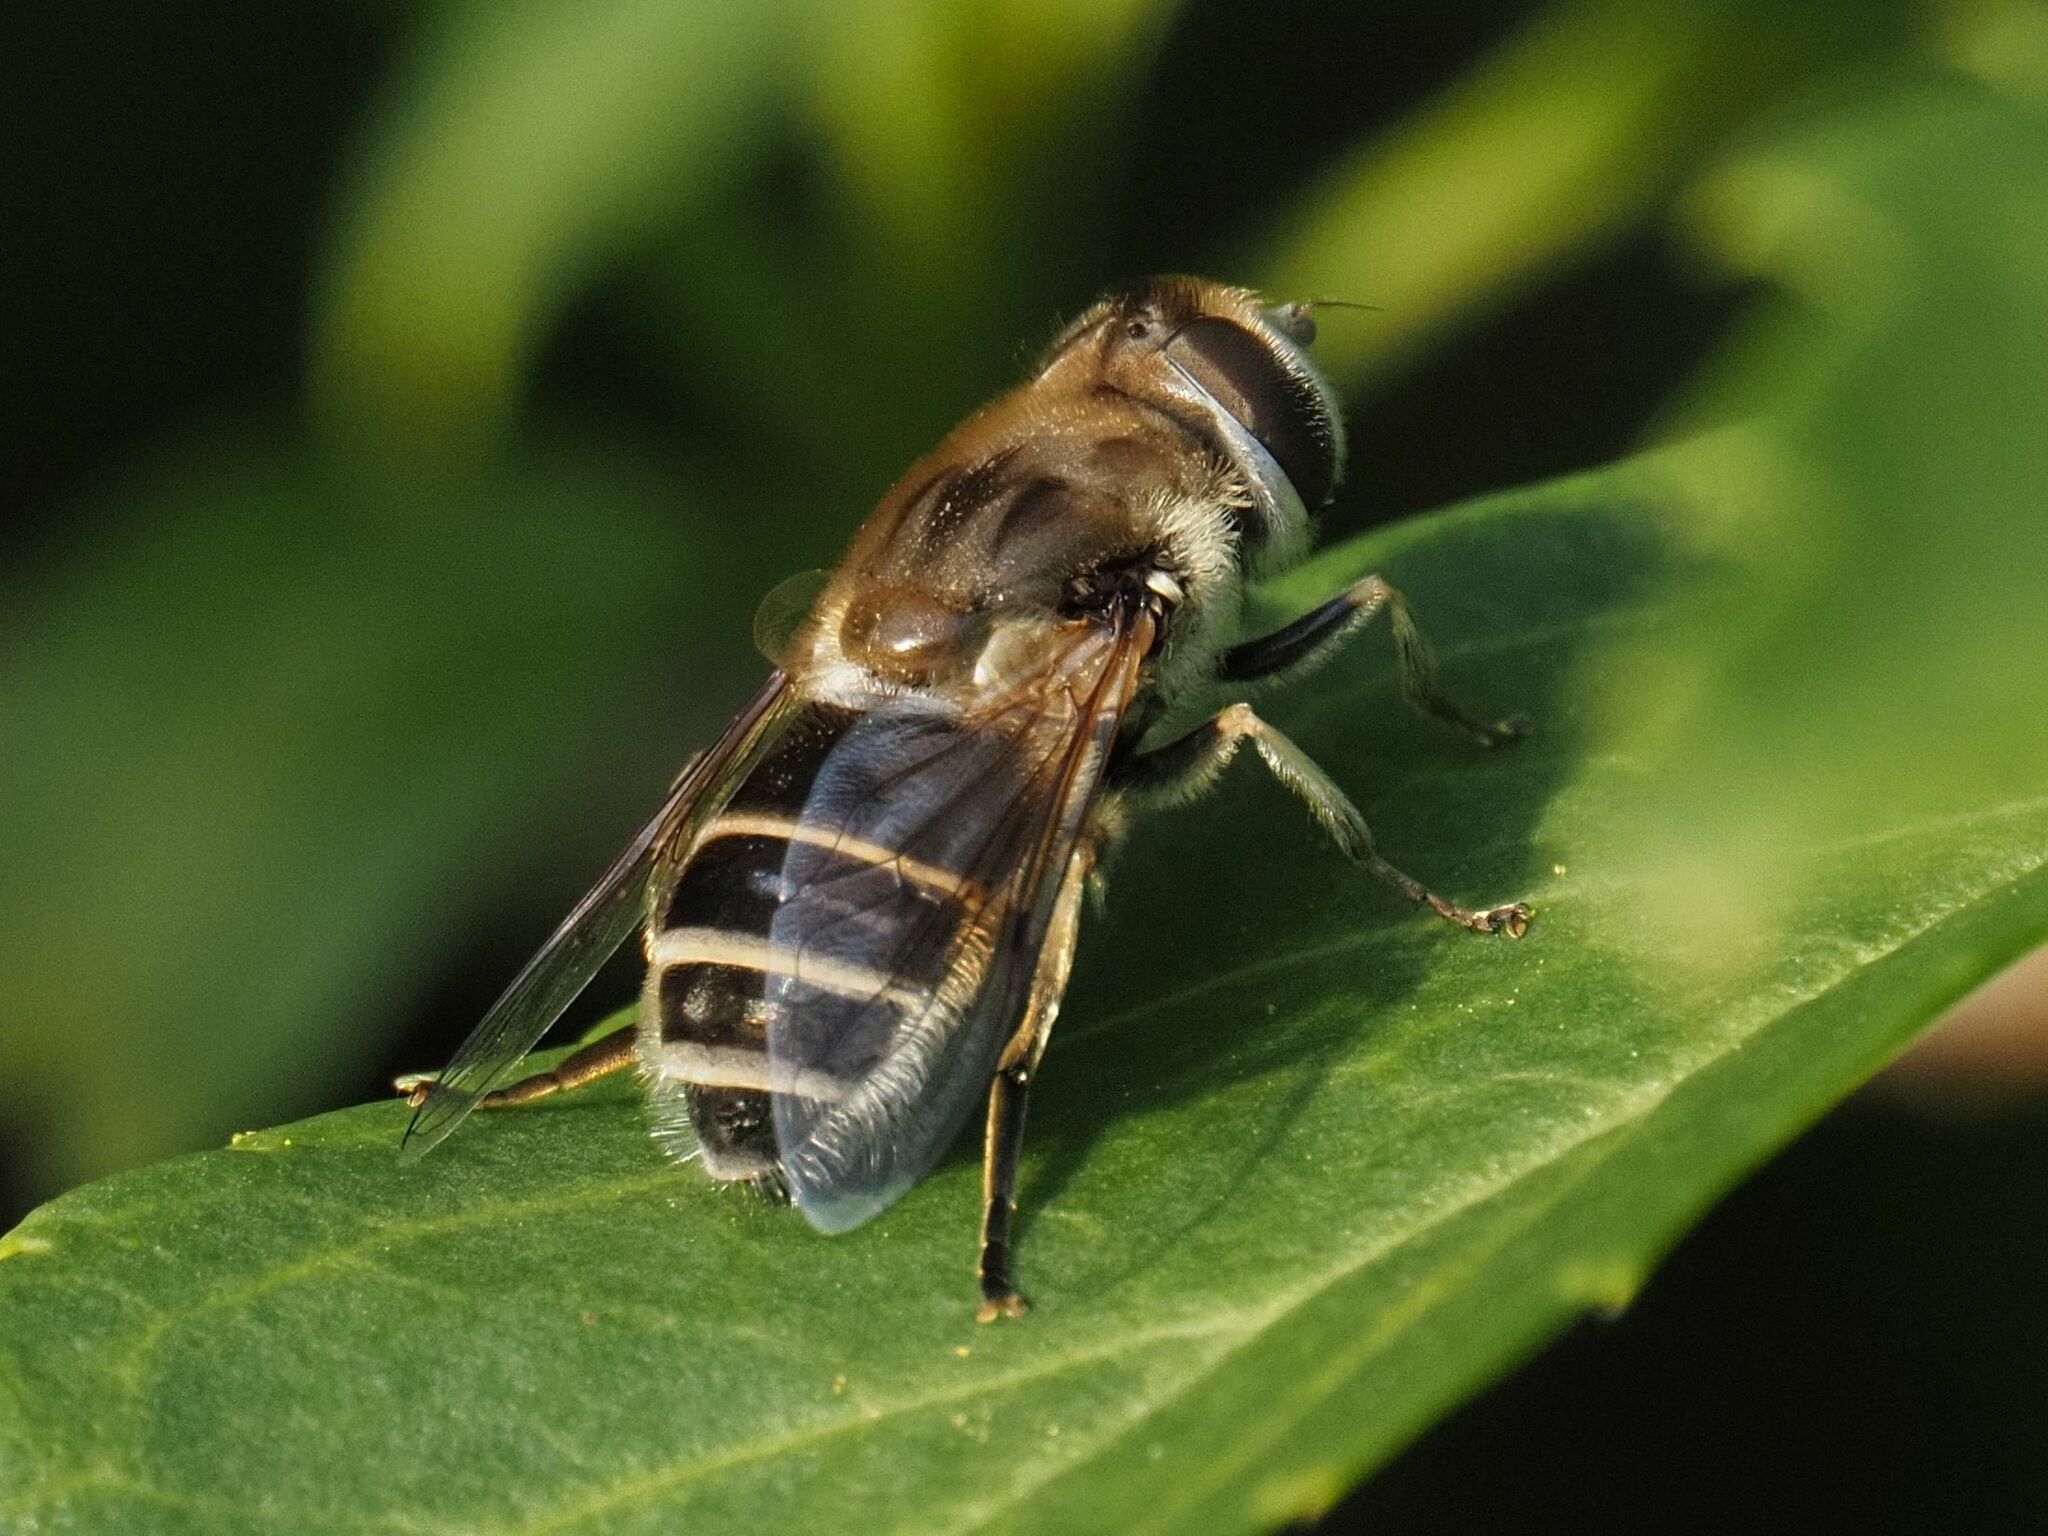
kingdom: Animalia
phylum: Arthropoda
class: Insecta
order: Diptera
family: Syrphidae
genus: Eristalis
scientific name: Eristalis arbustorum
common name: Hover fly
